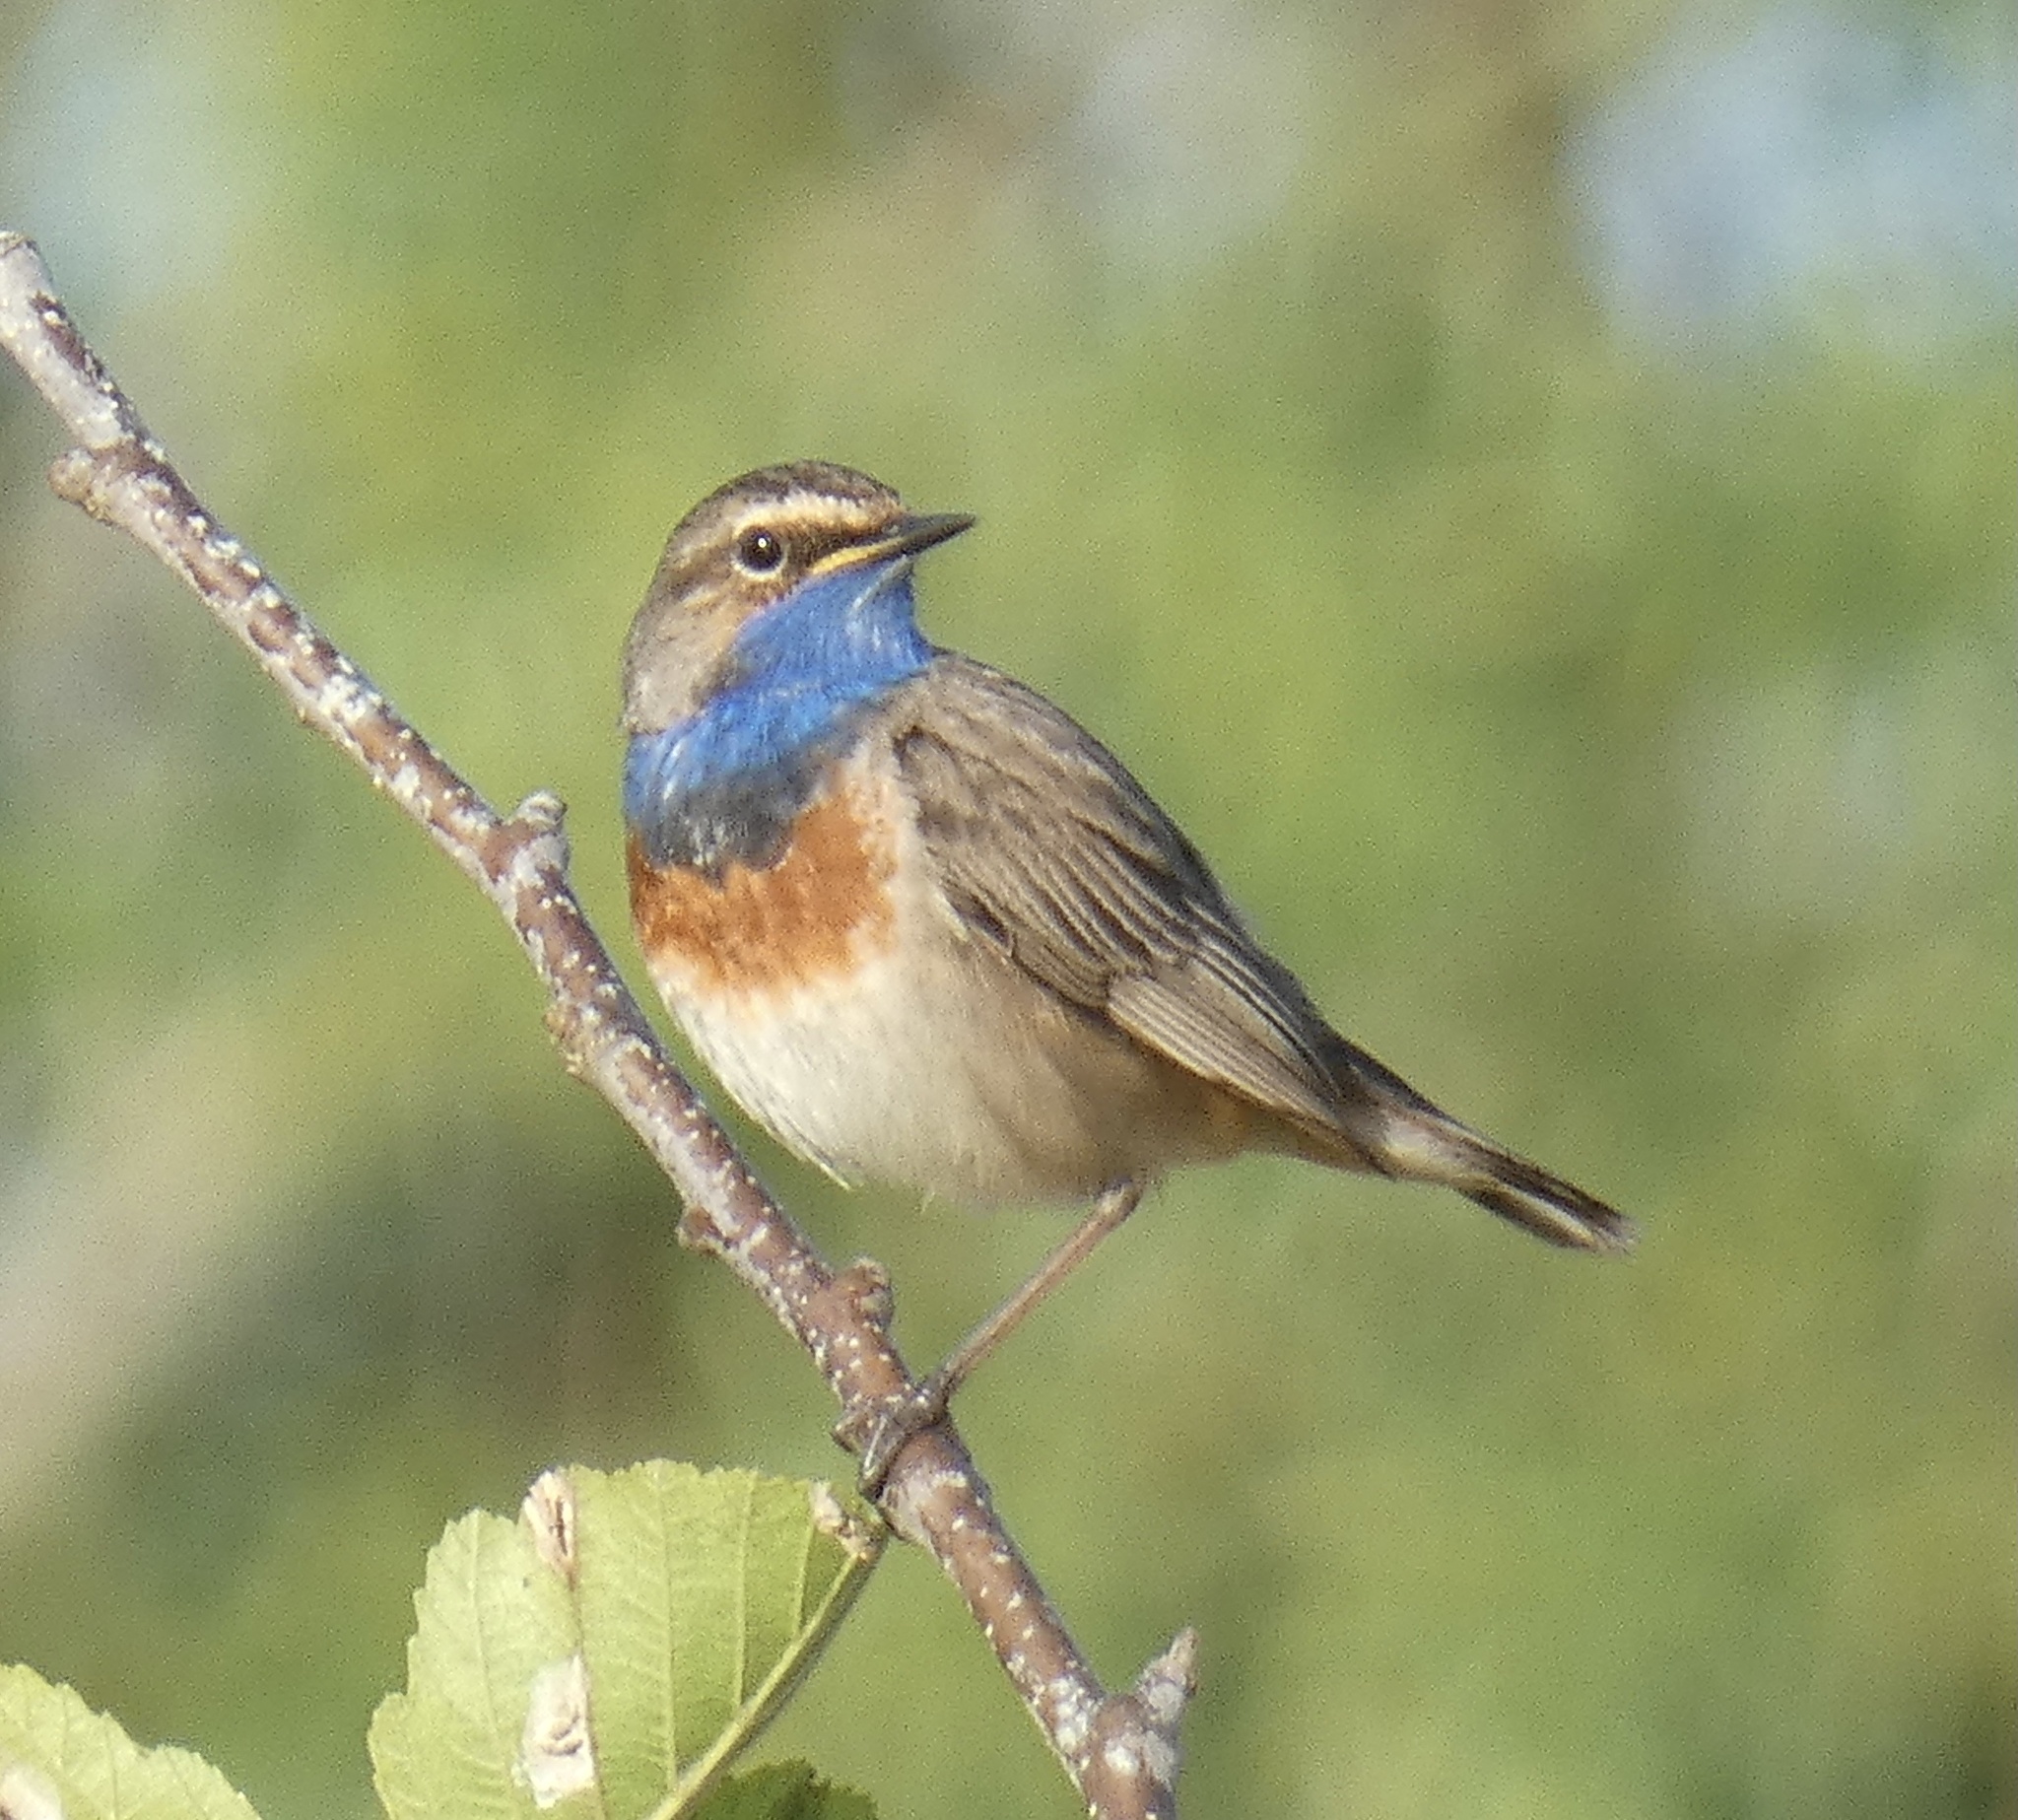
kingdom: Animalia
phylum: Chordata
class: Aves
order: Passeriformes
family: Muscicapidae
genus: Luscinia
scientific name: Luscinia svecica
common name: Bluethroat
